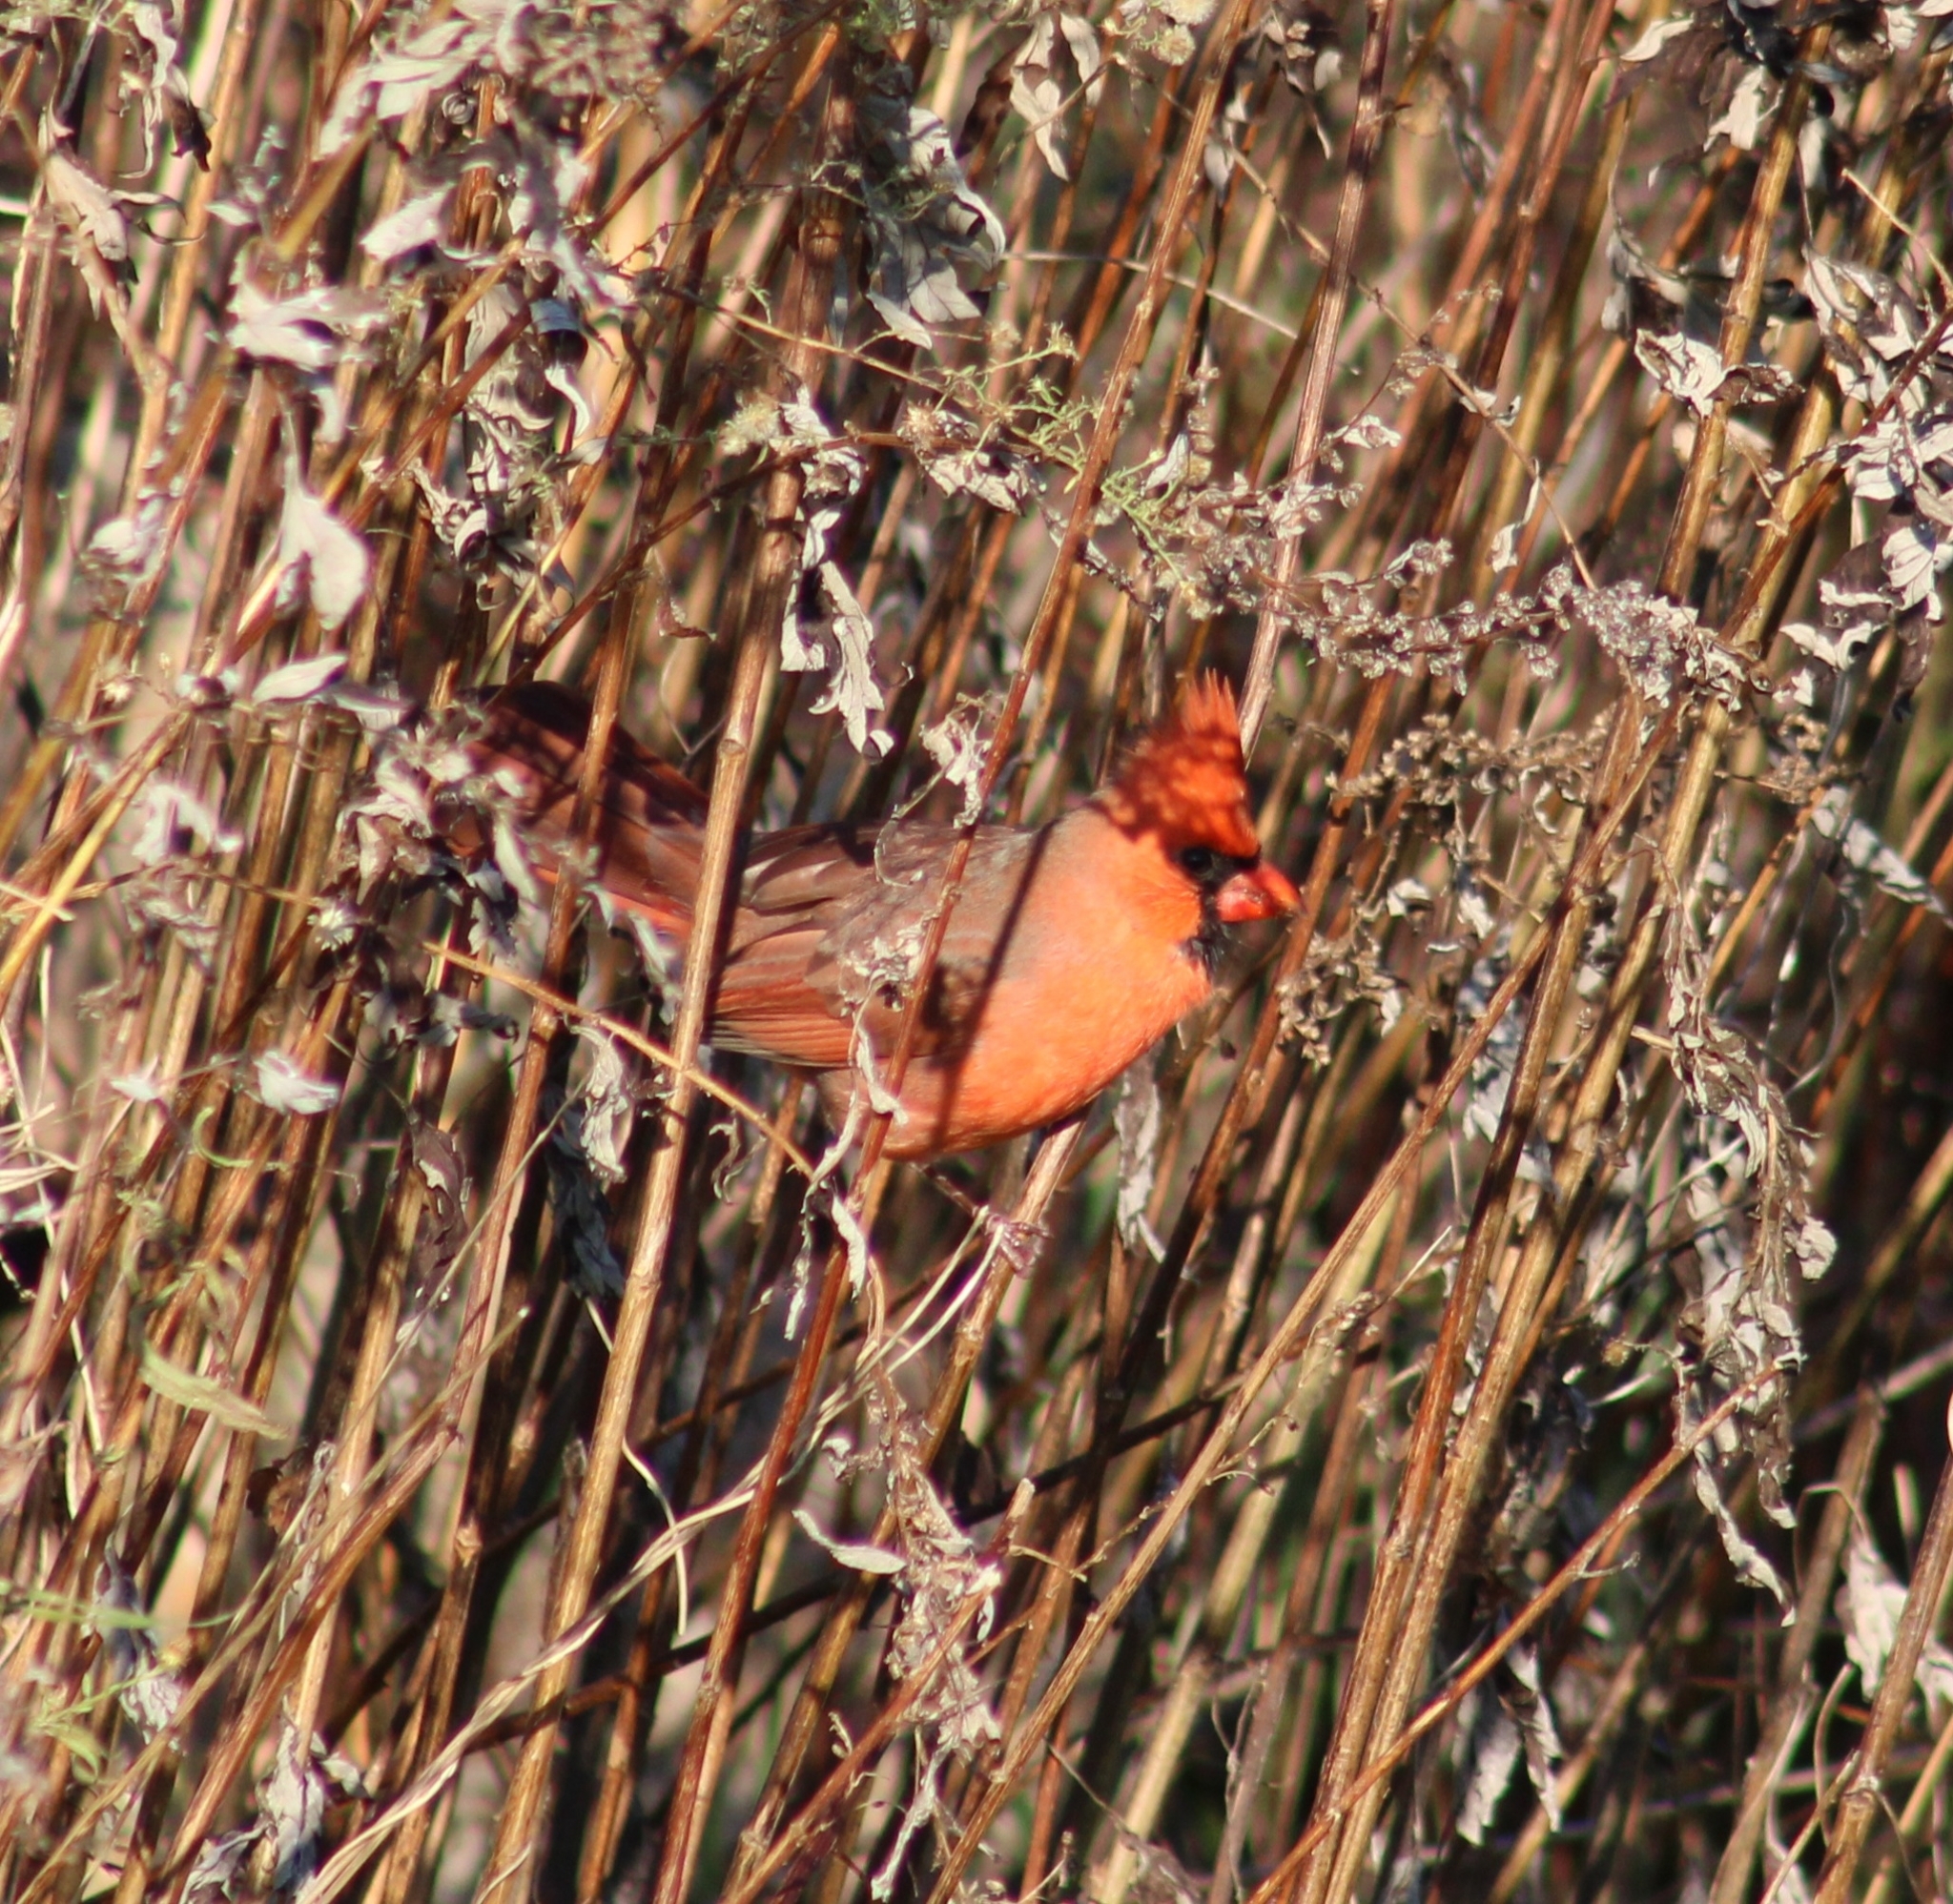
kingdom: Animalia
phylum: Chordata
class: Aves
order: Passeriformes
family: Cardinalidae
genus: Cardinalis
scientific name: Cardinalis cardinalis
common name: Northern cardinal
